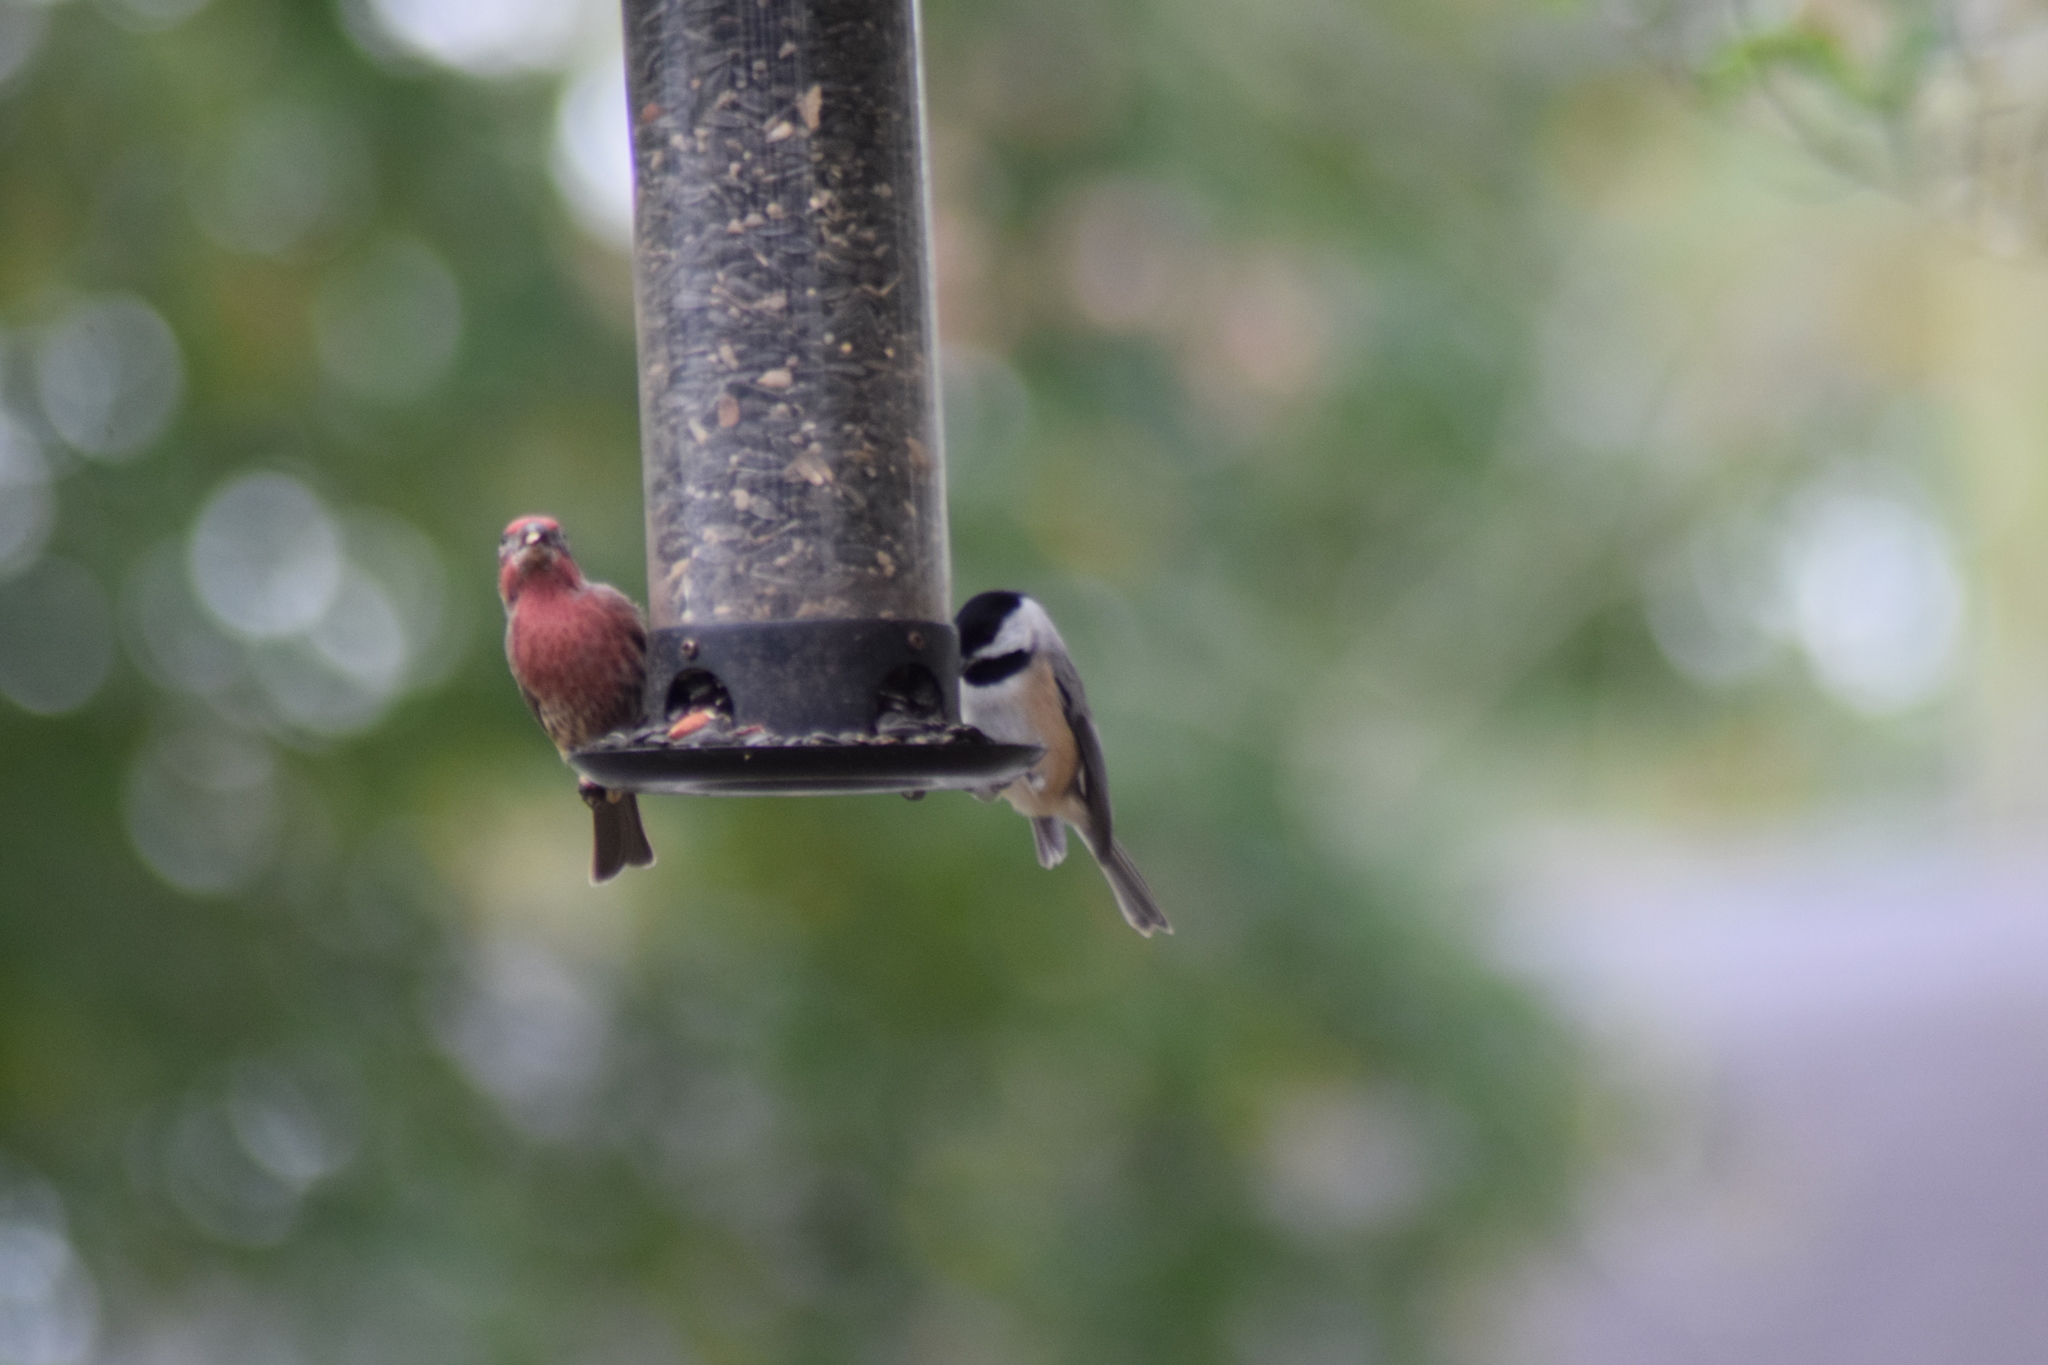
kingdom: Animalia
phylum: Chordata
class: Aves
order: Passeriformes
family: Paridae
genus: Poecile
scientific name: Poecile carolinensis
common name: Carolina chickadee
